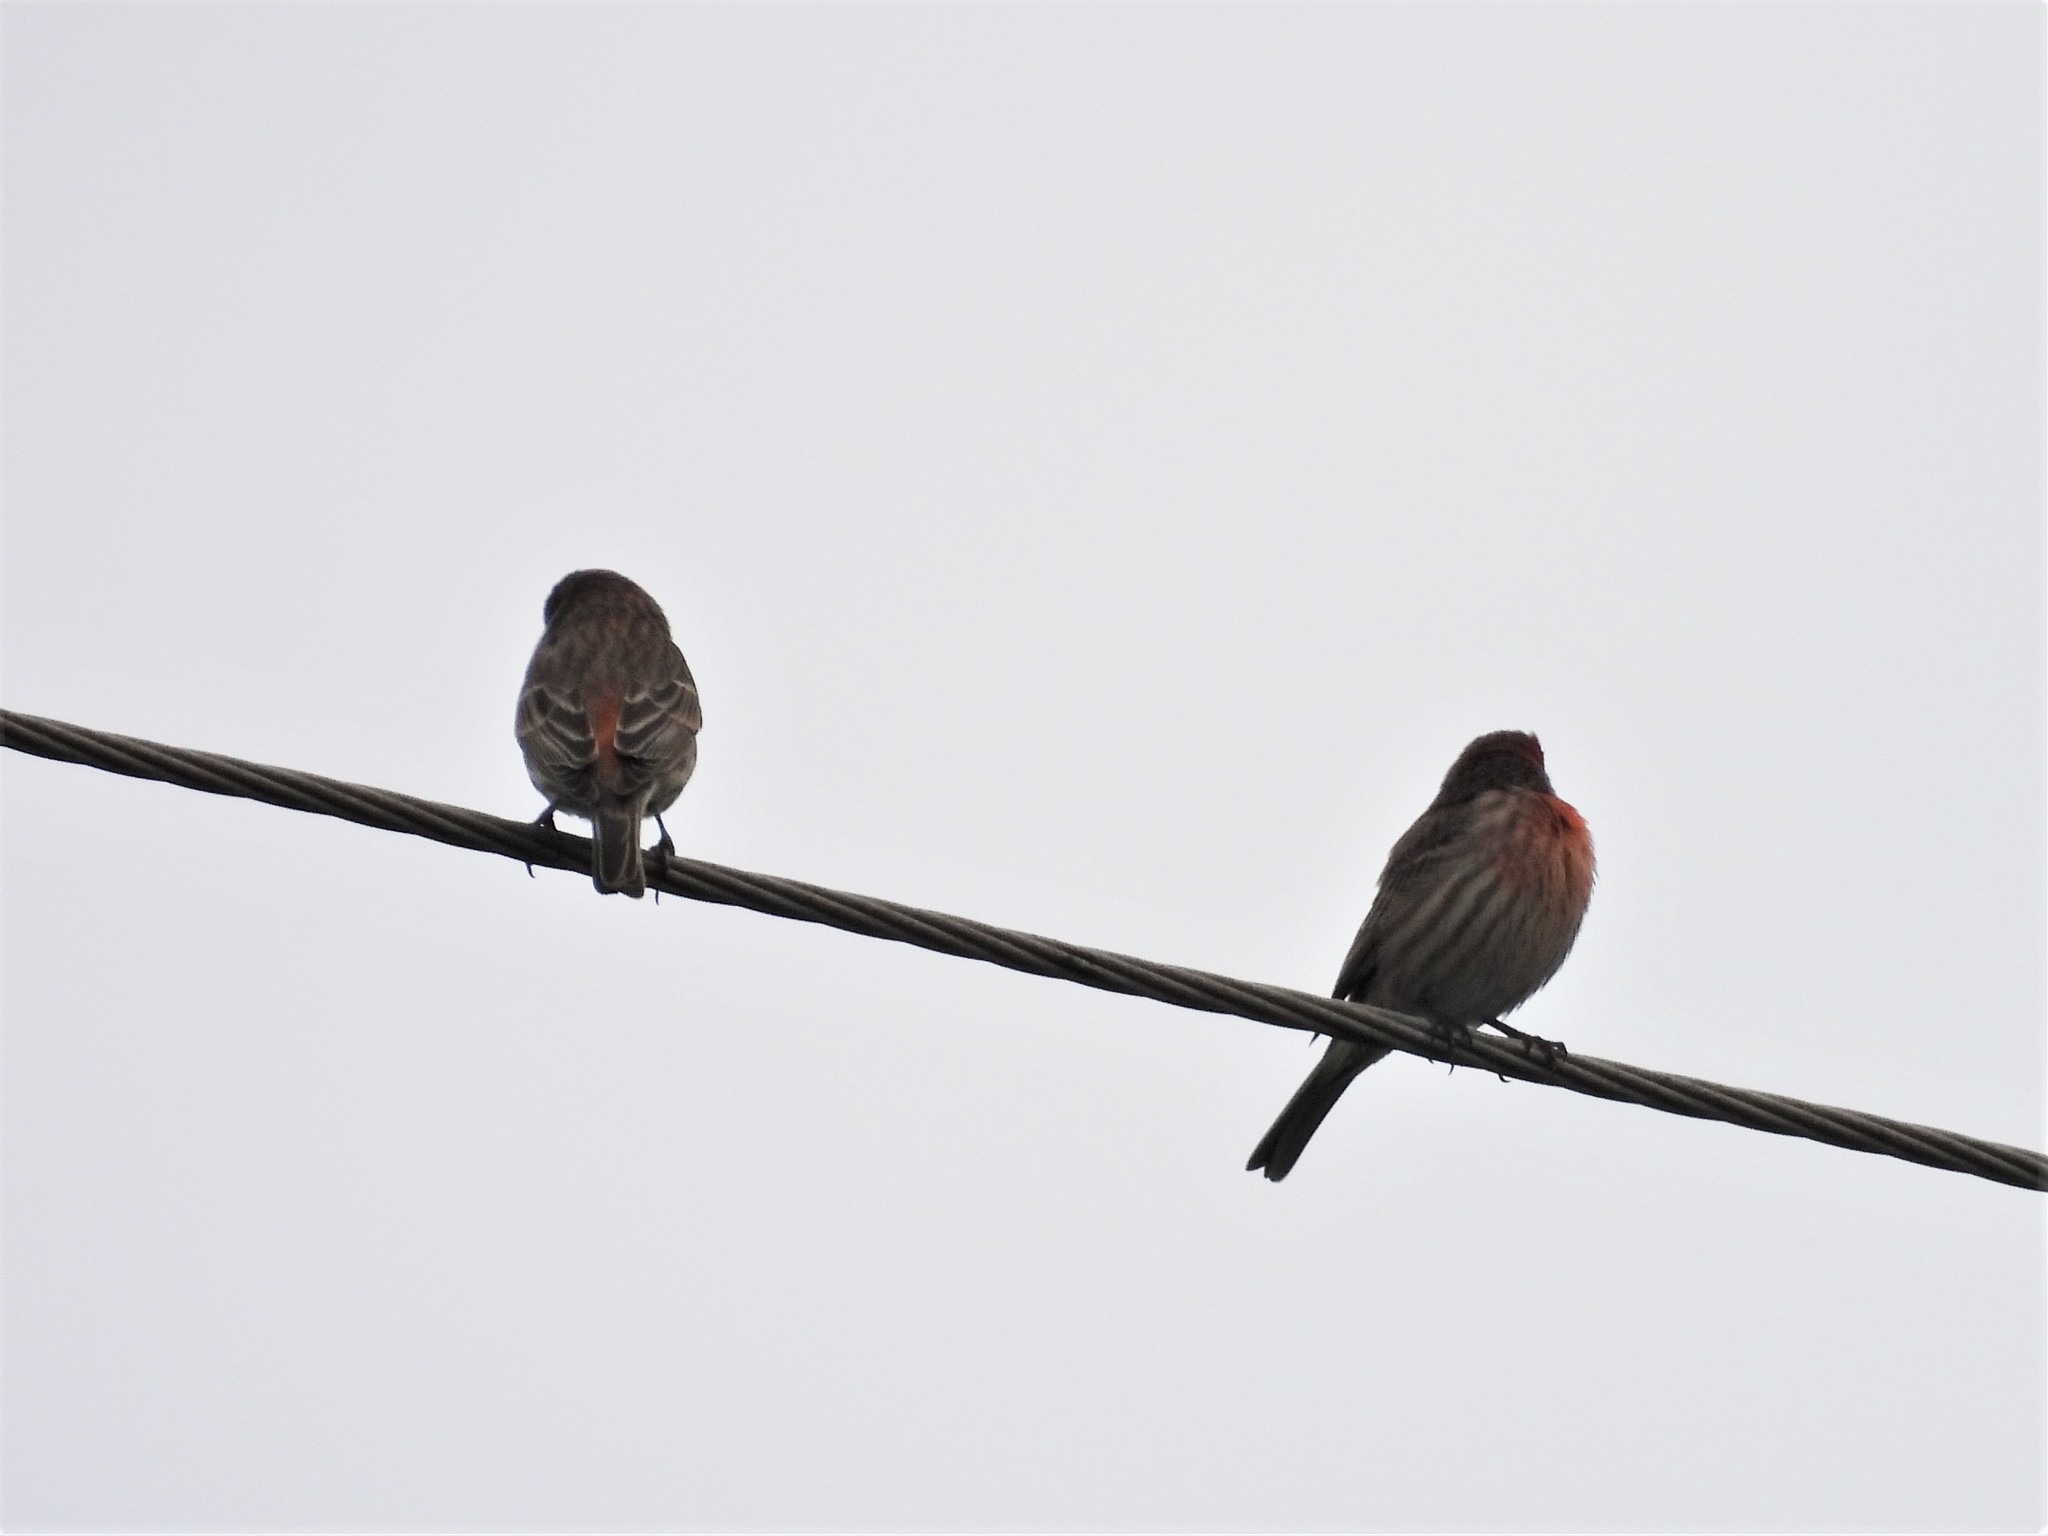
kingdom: Animalia
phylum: Chordata
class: Aves
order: Passeriformes
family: Fringillidae
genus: Haemorhous
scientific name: Haemorhous mexicanus
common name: House finch
